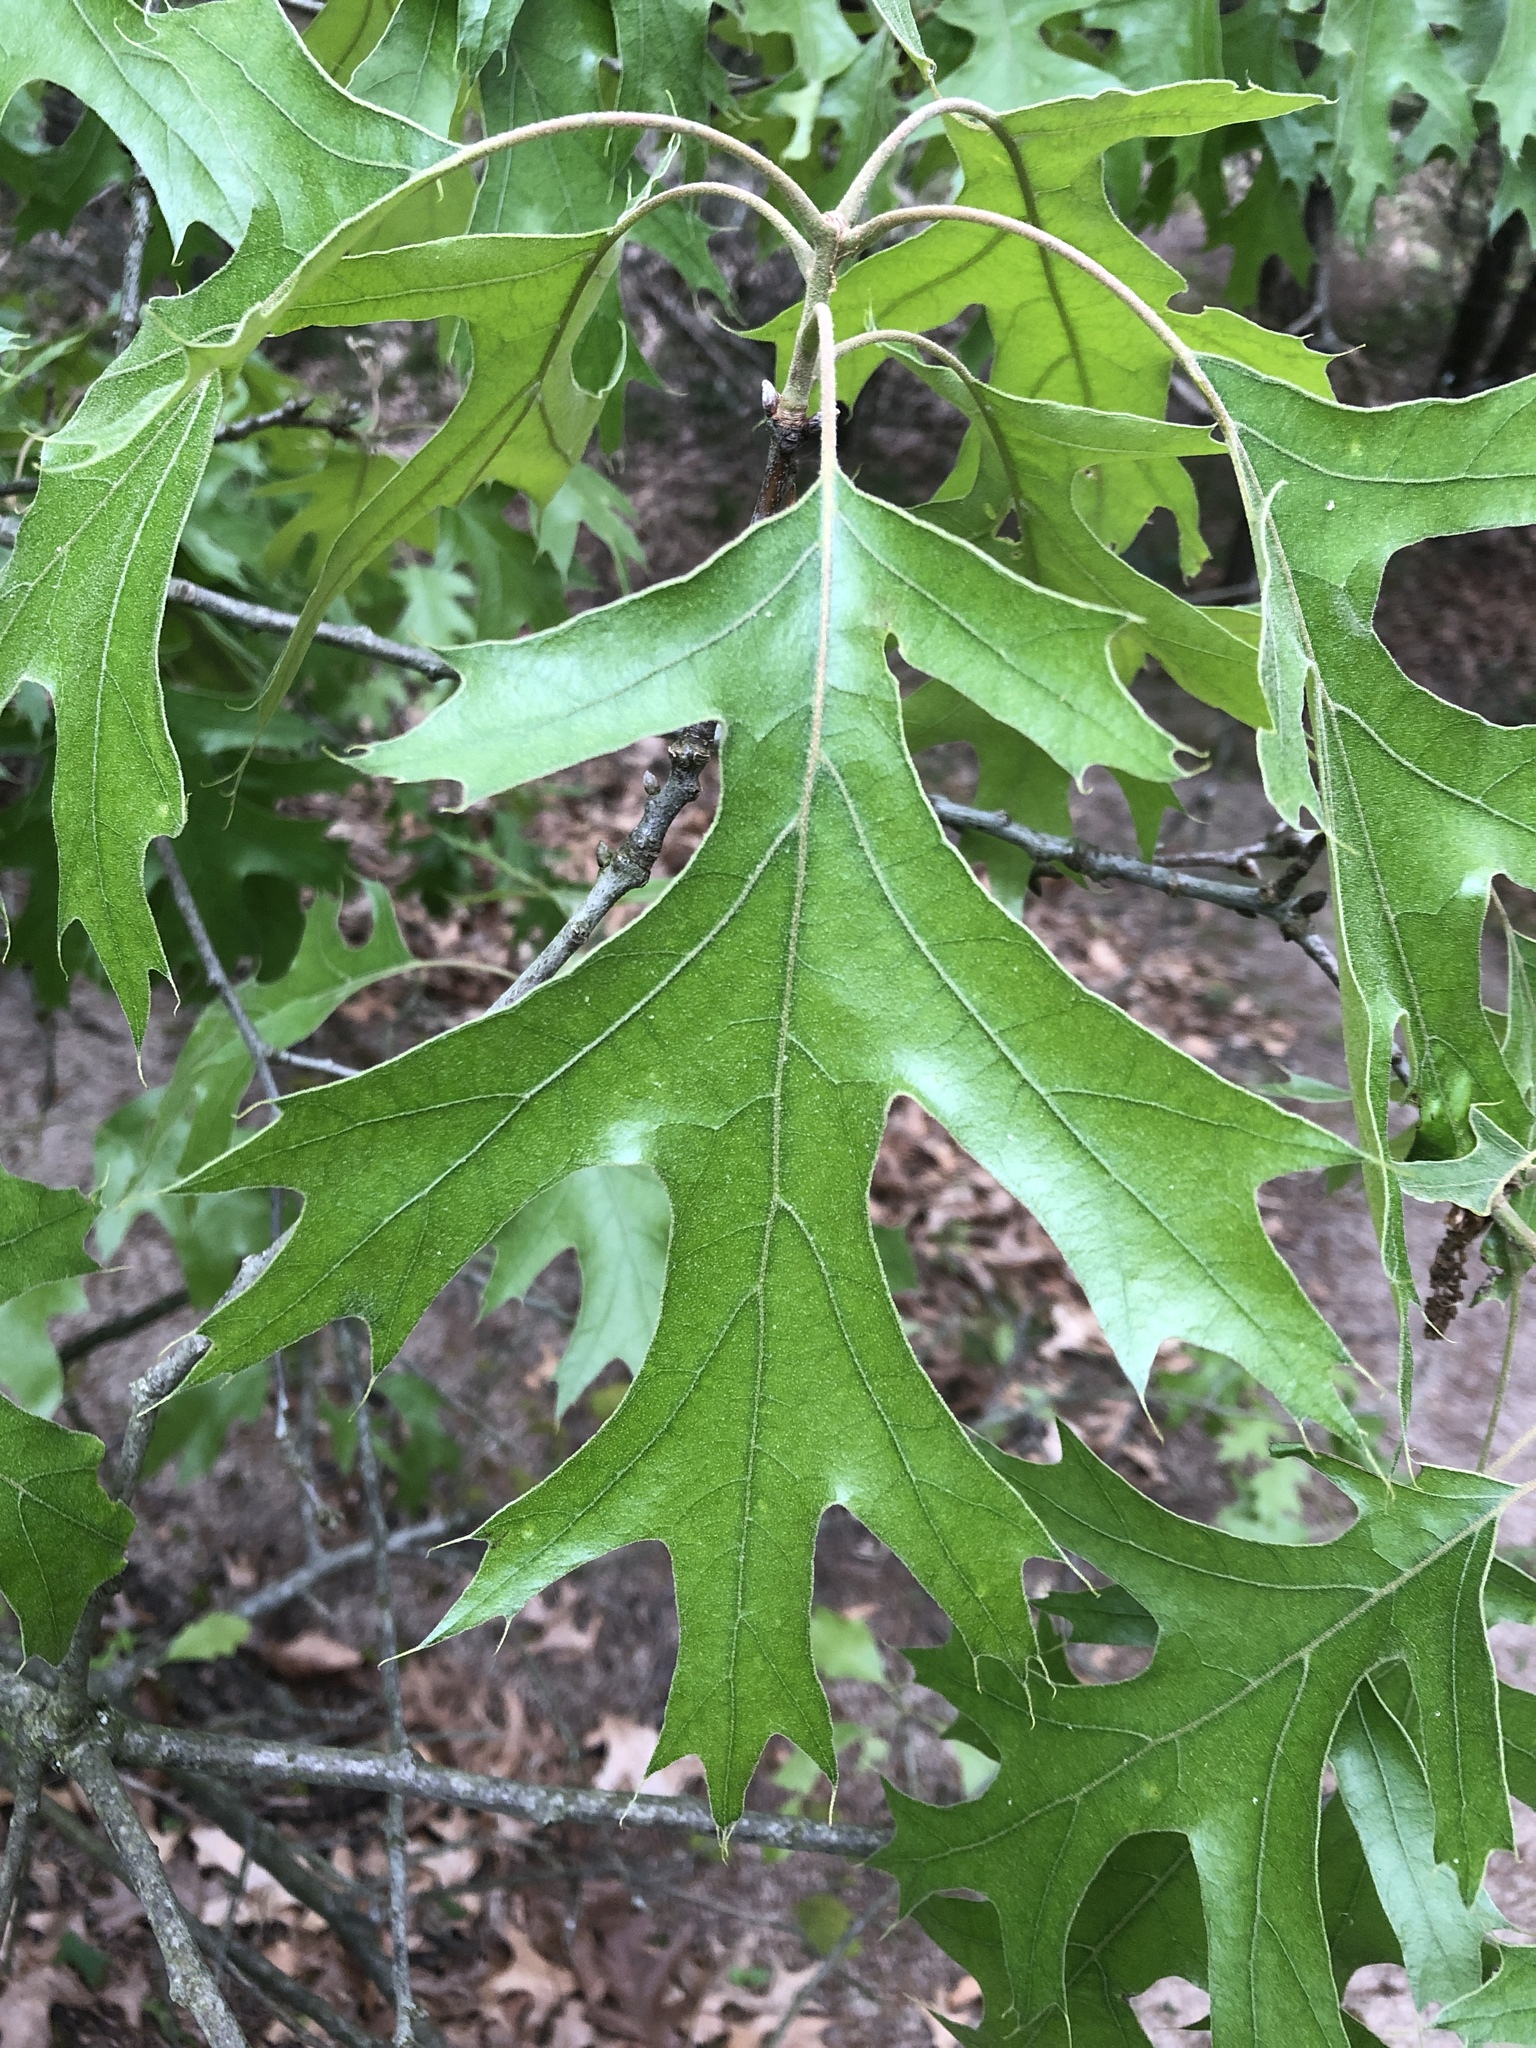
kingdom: Plantae
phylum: Tracheophyta
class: Magnoliopsida
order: Fagales
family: Fagaceae
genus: Quercus
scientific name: Quercus velutina
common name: Black oak
